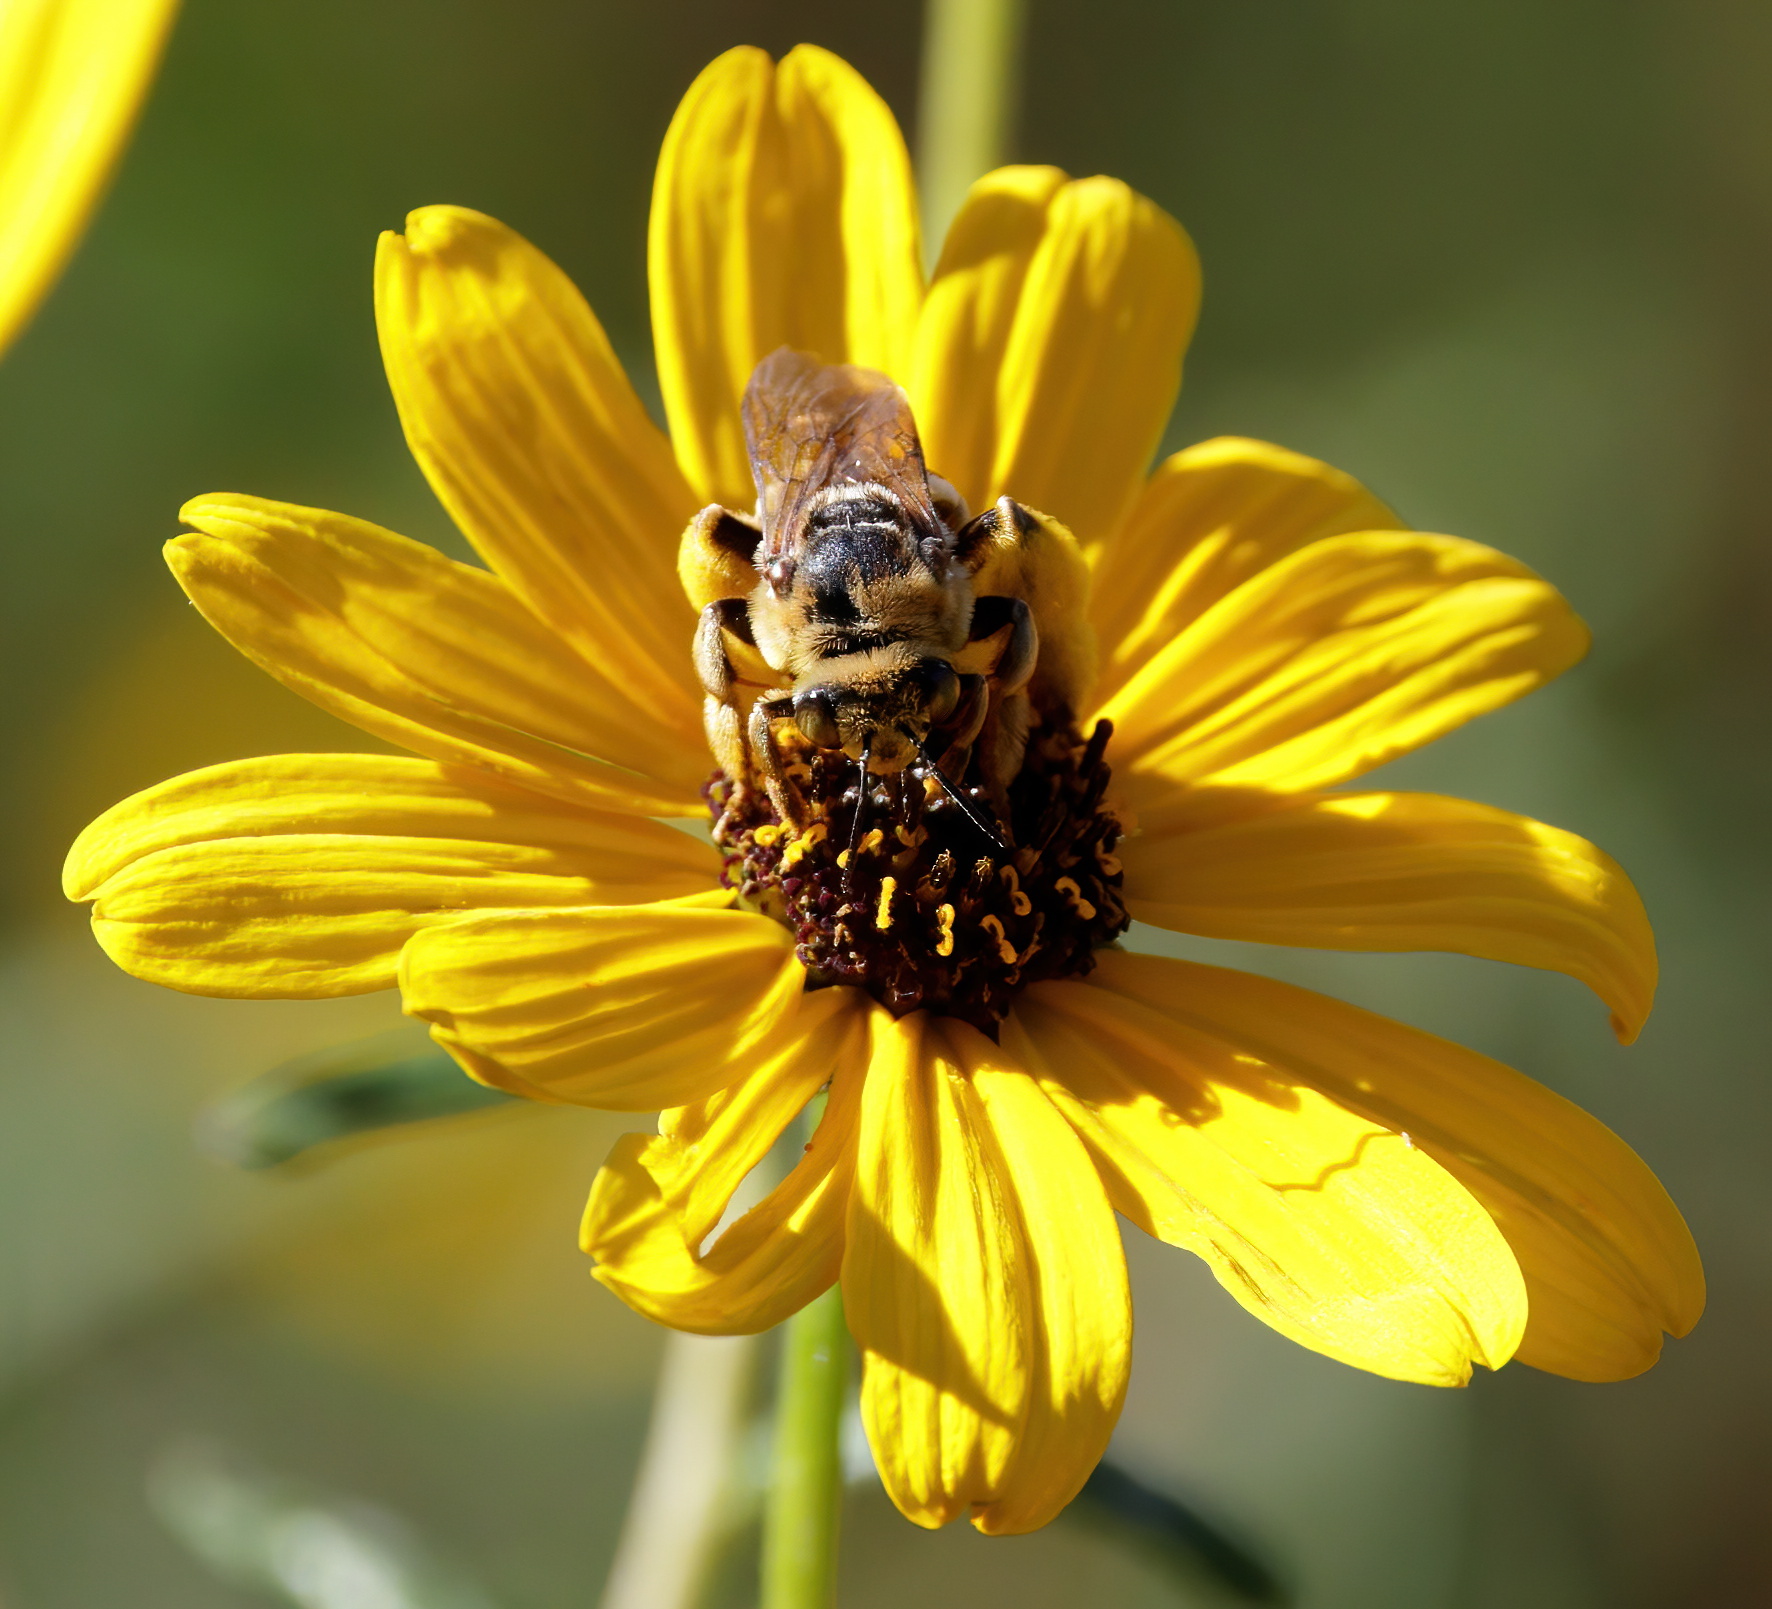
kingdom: Animalia
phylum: Arthropoda
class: Insecta
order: Hymenoptera
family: Apidae
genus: Svastra
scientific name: Svastra aegis
